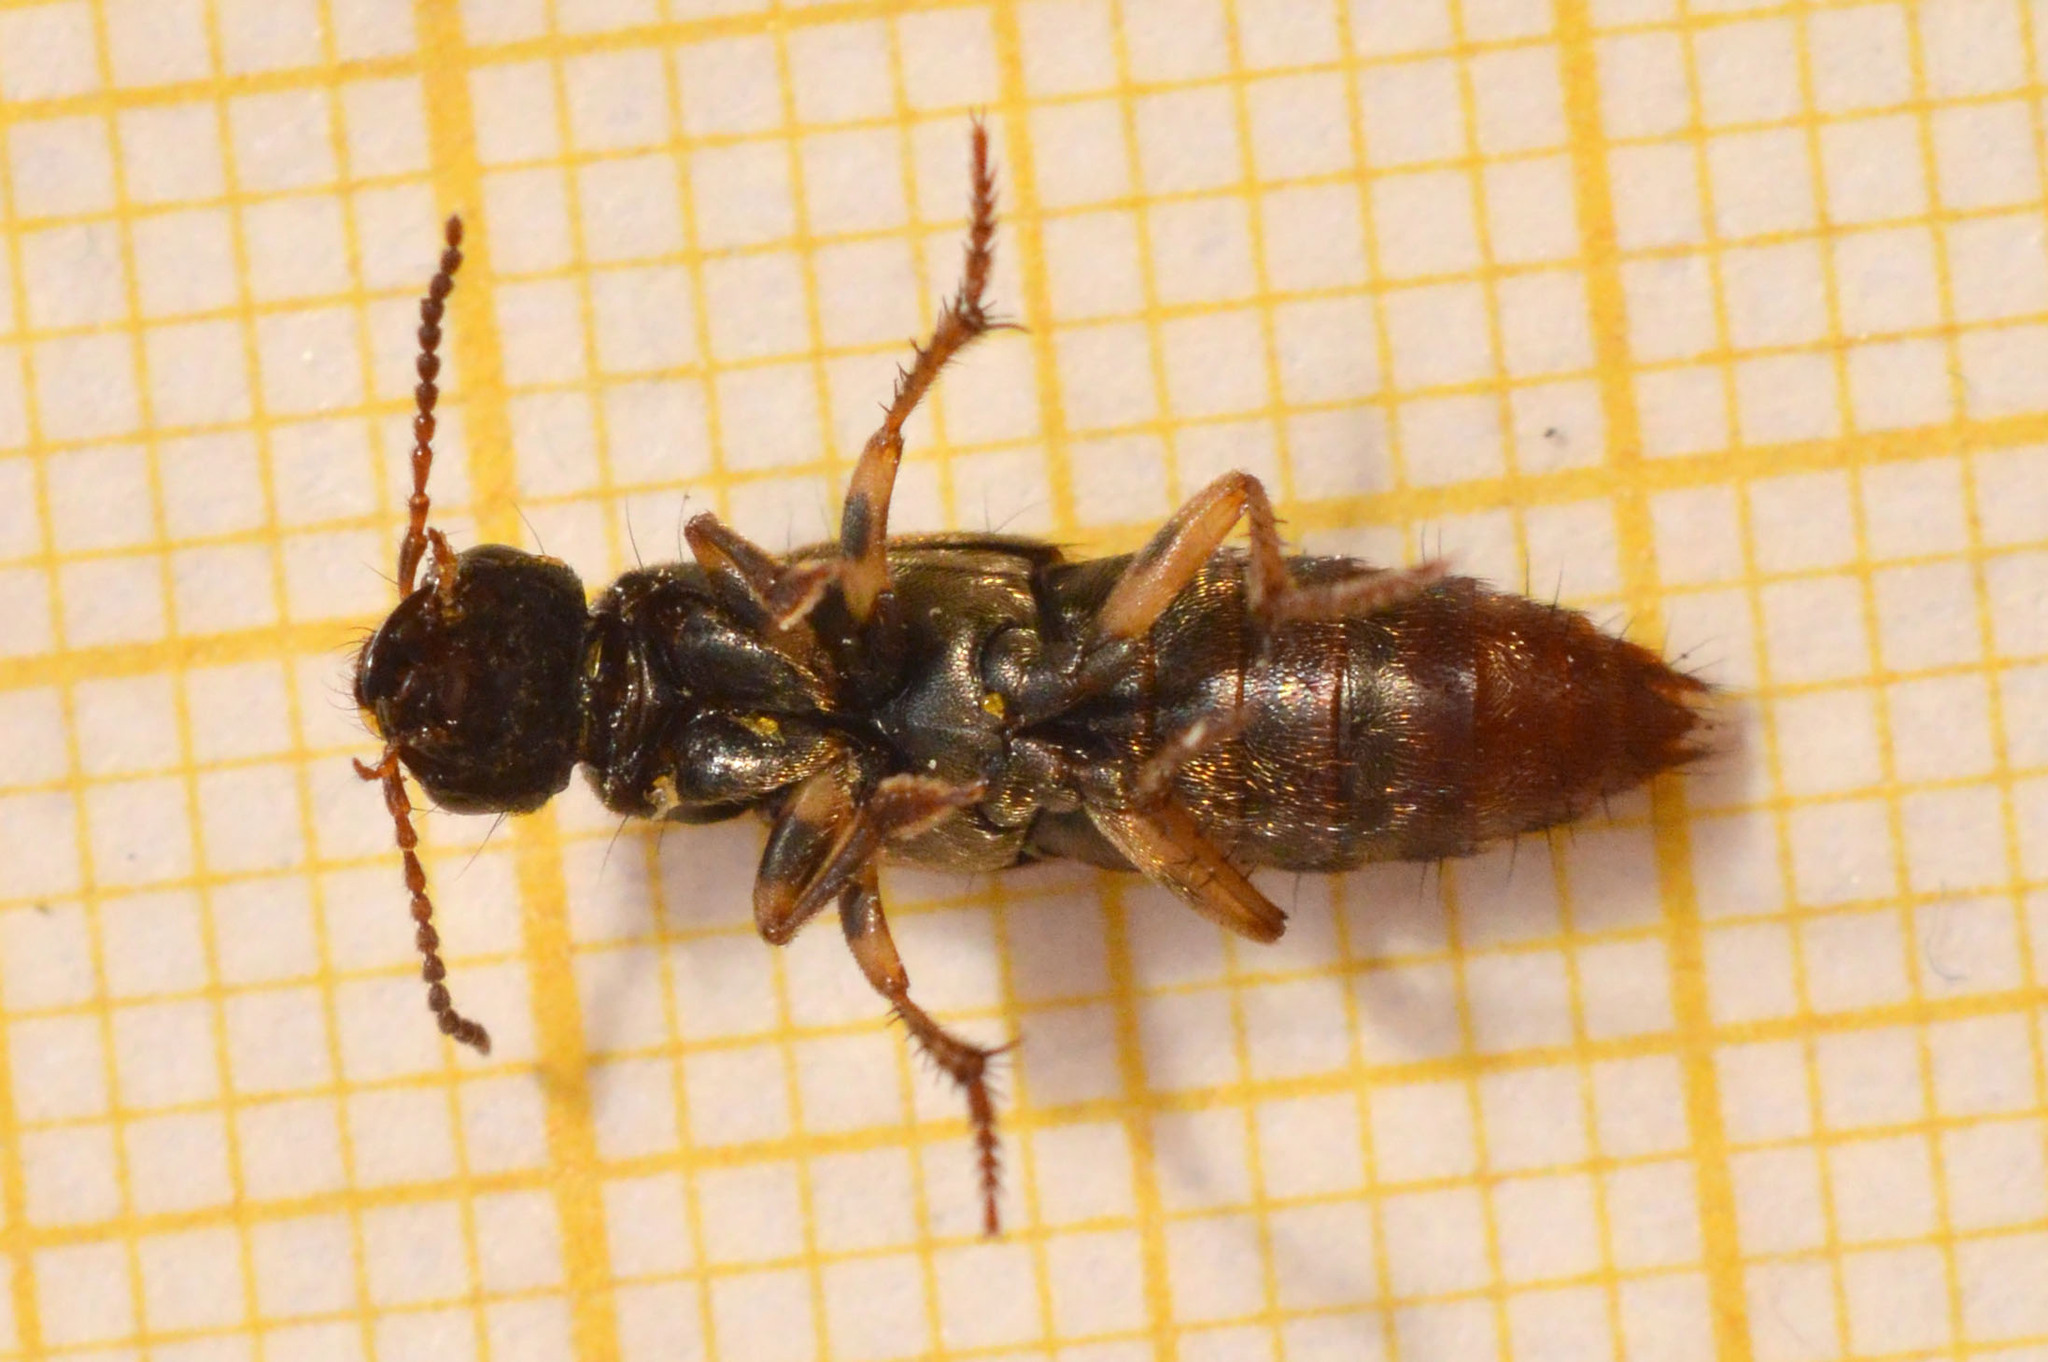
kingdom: Animalia
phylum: Arthropoda
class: Insecta
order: Coleoptera
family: Staphylinidae
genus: Abemus
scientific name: Abemus chloropterus
